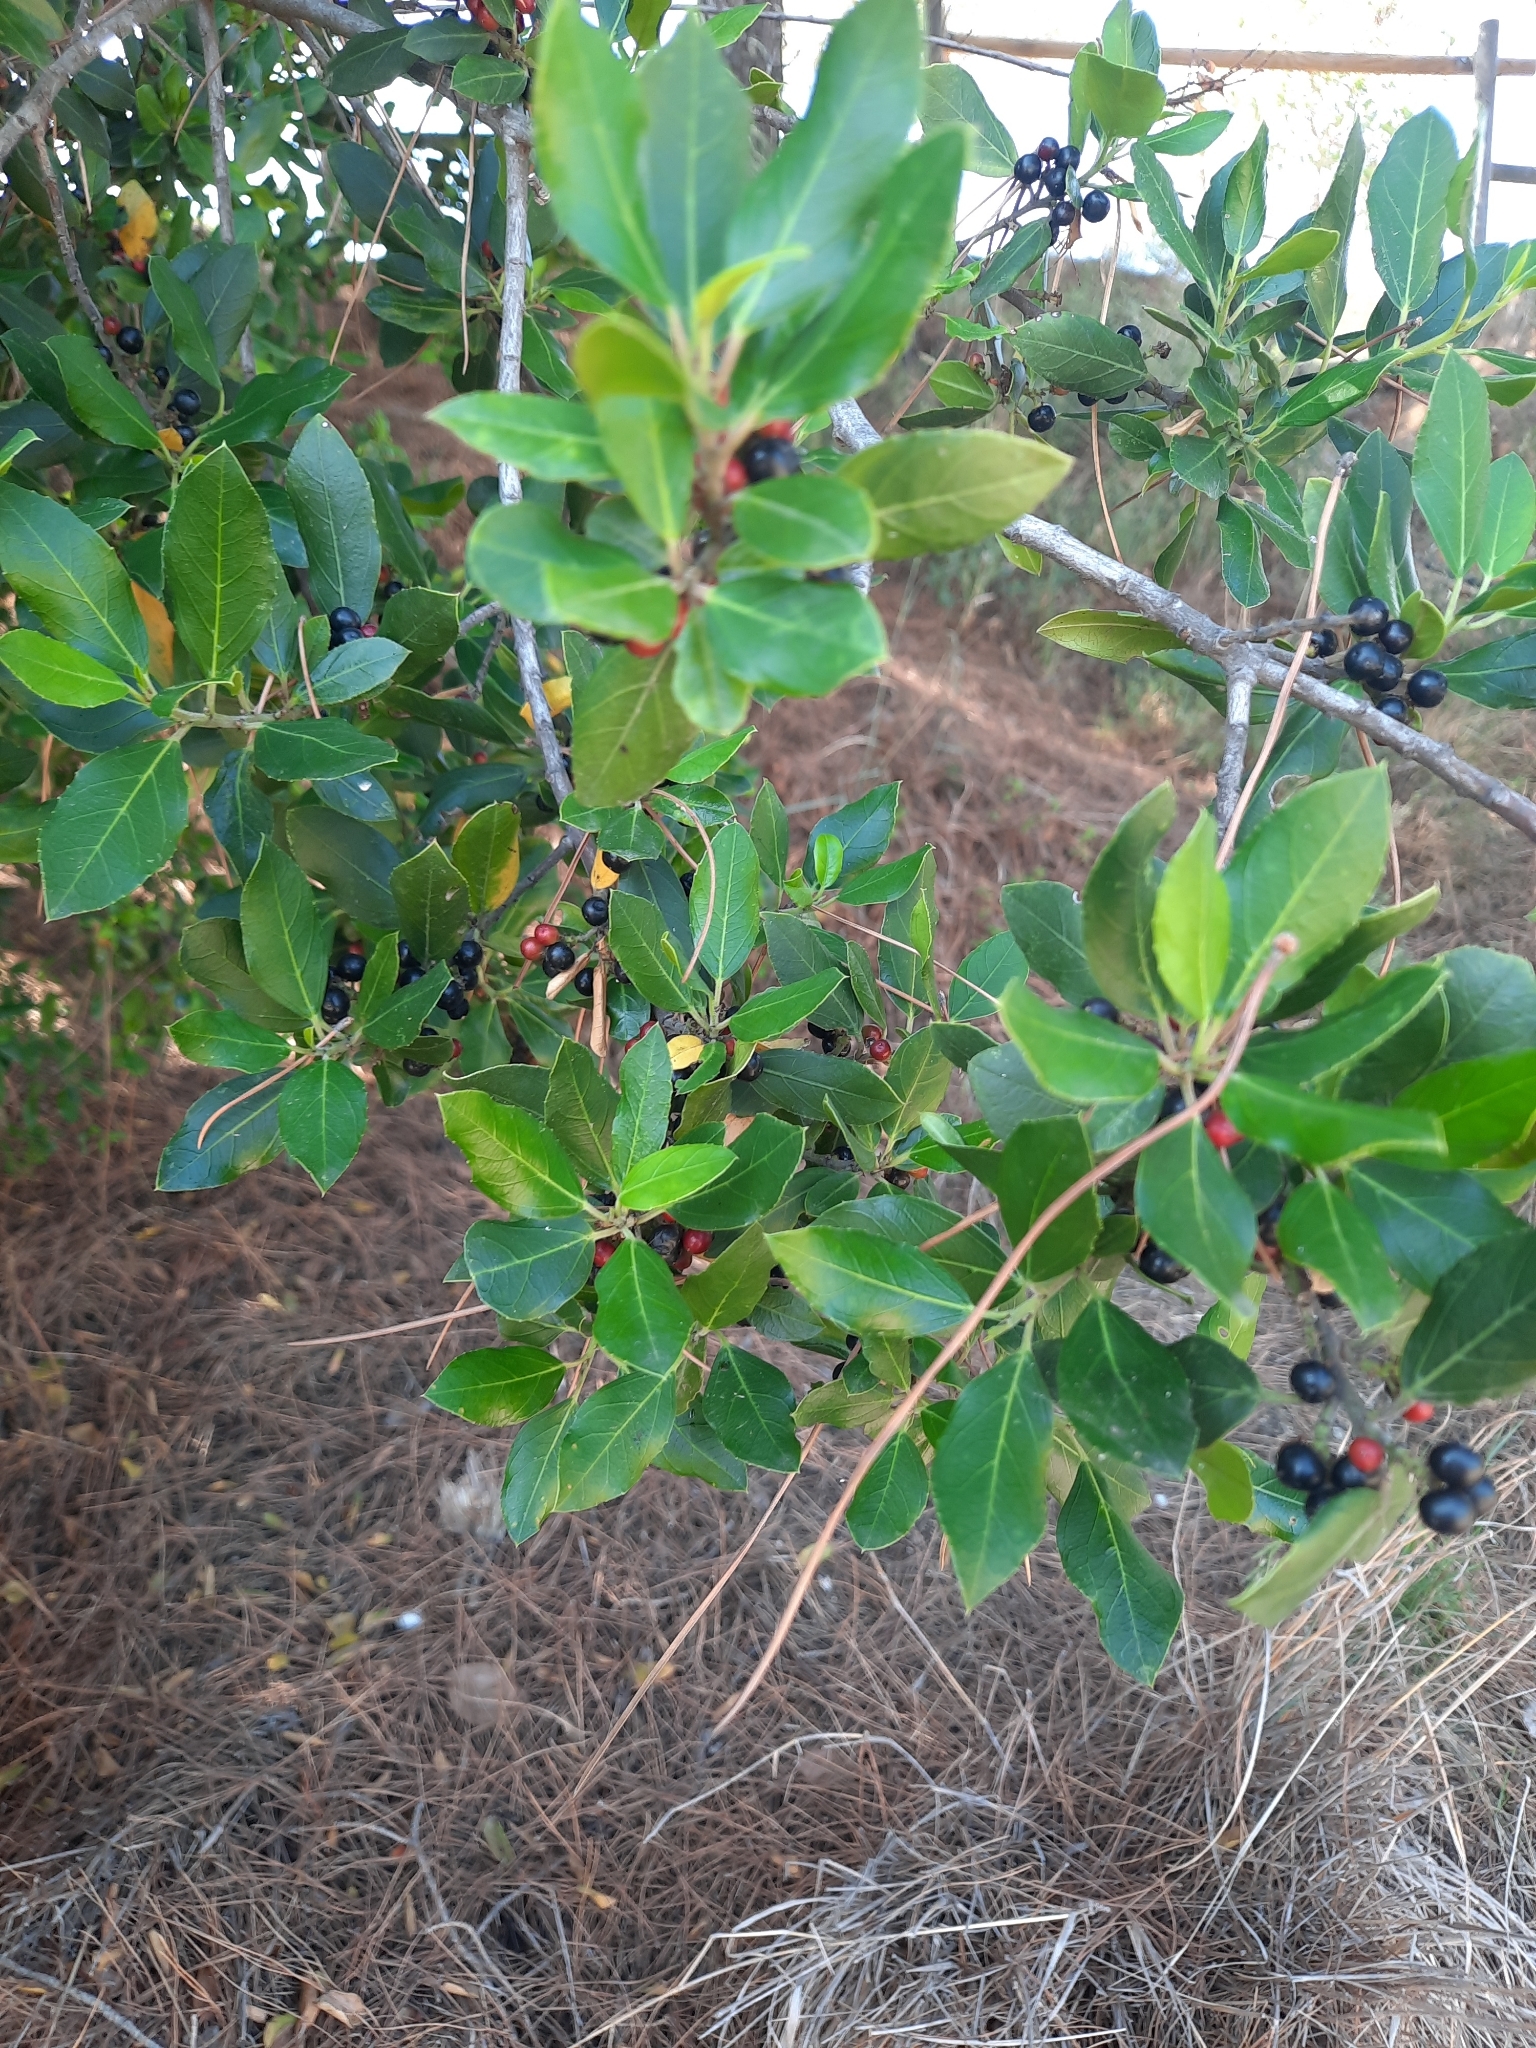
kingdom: Plantae
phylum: Tracheophyta
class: Magnoliopsida
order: Rosales
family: Rhamnaceae
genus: Rhamnus
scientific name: Rhamnus alaternus
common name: Mediterranean buckthorn
